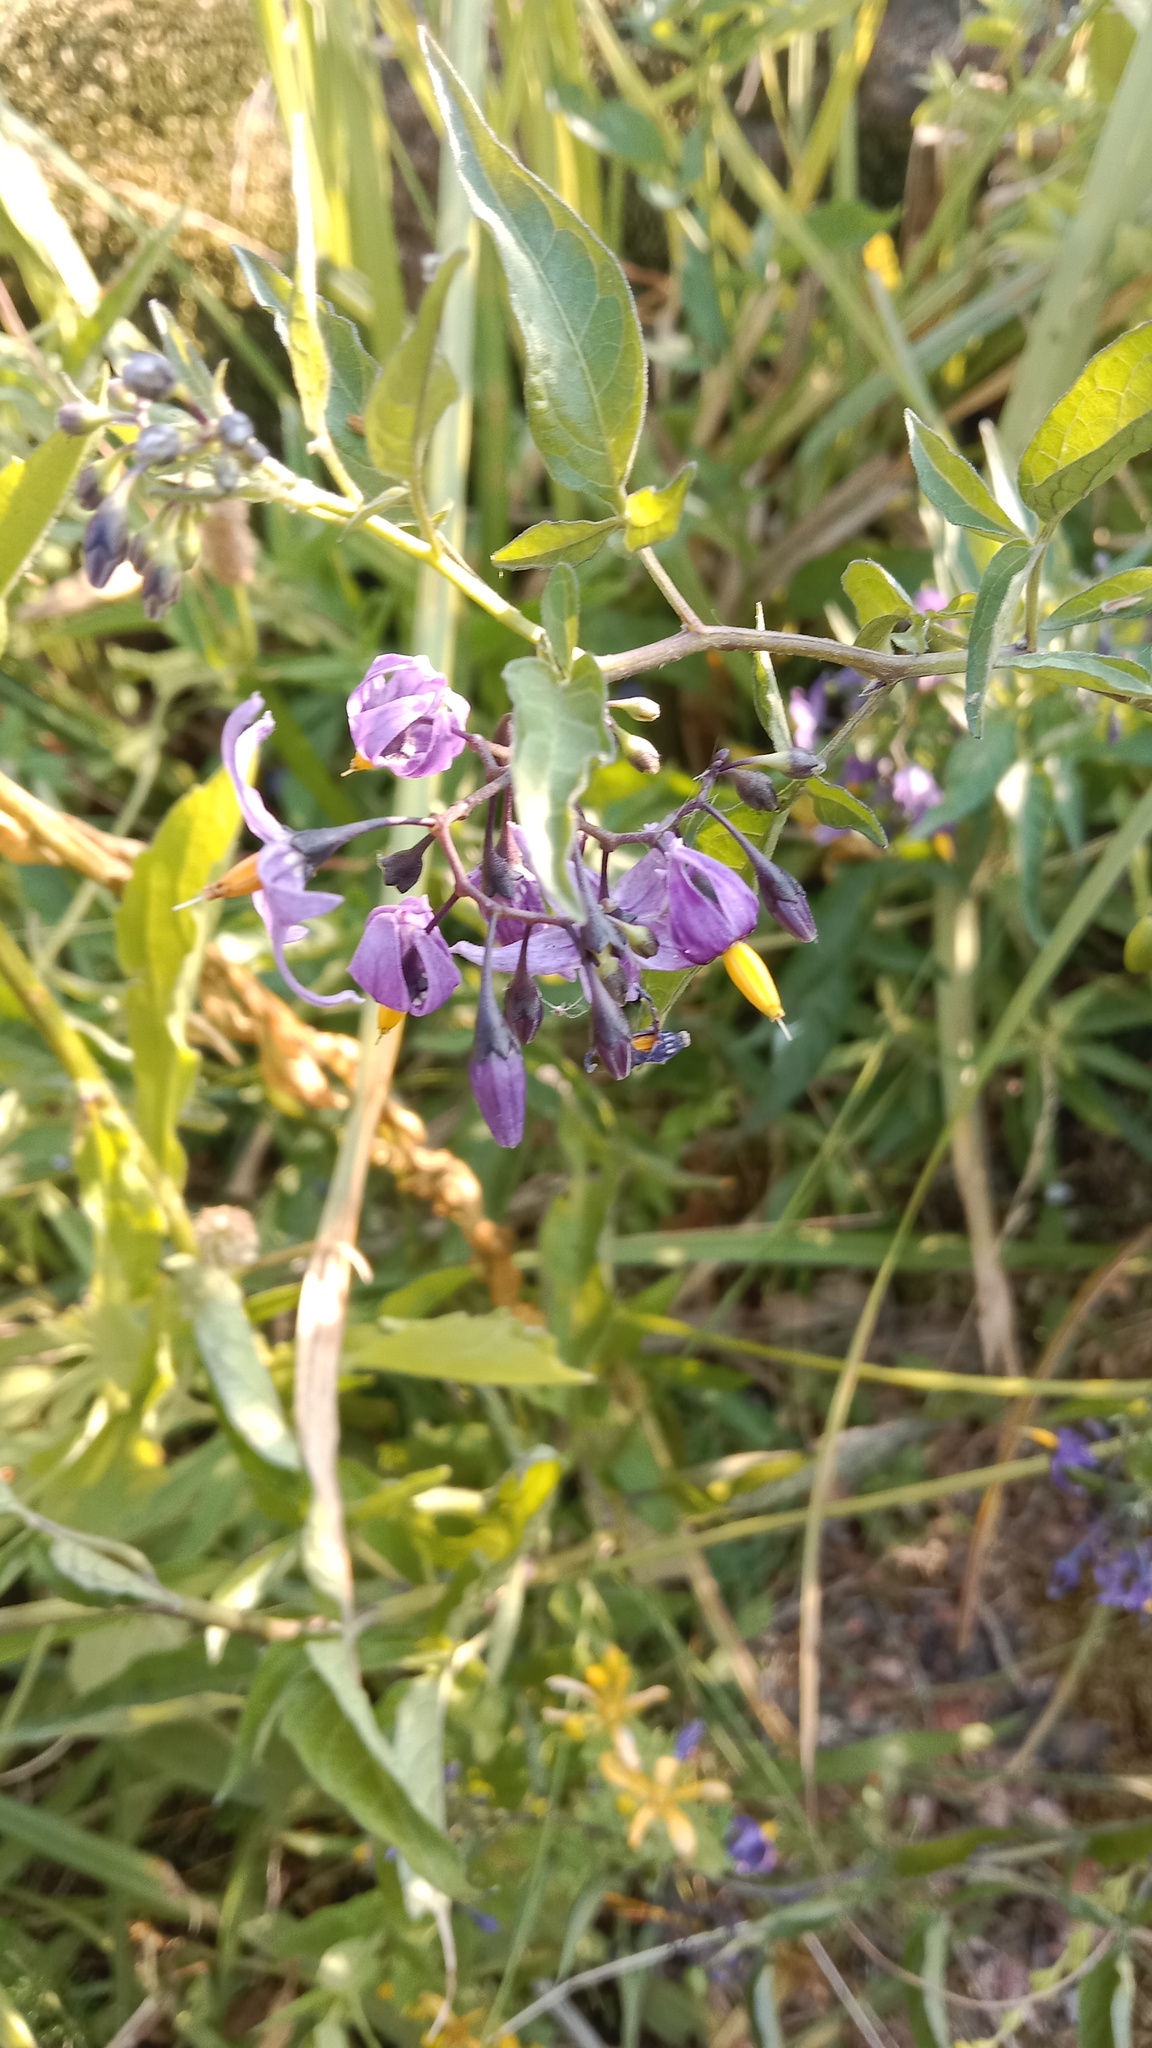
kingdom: Plantae
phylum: Tracheophyta
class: Magnoliopsida
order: Solanales
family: Solanaceae
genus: Solanum
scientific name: Solanum dulcamara
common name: Climbing nightshade
